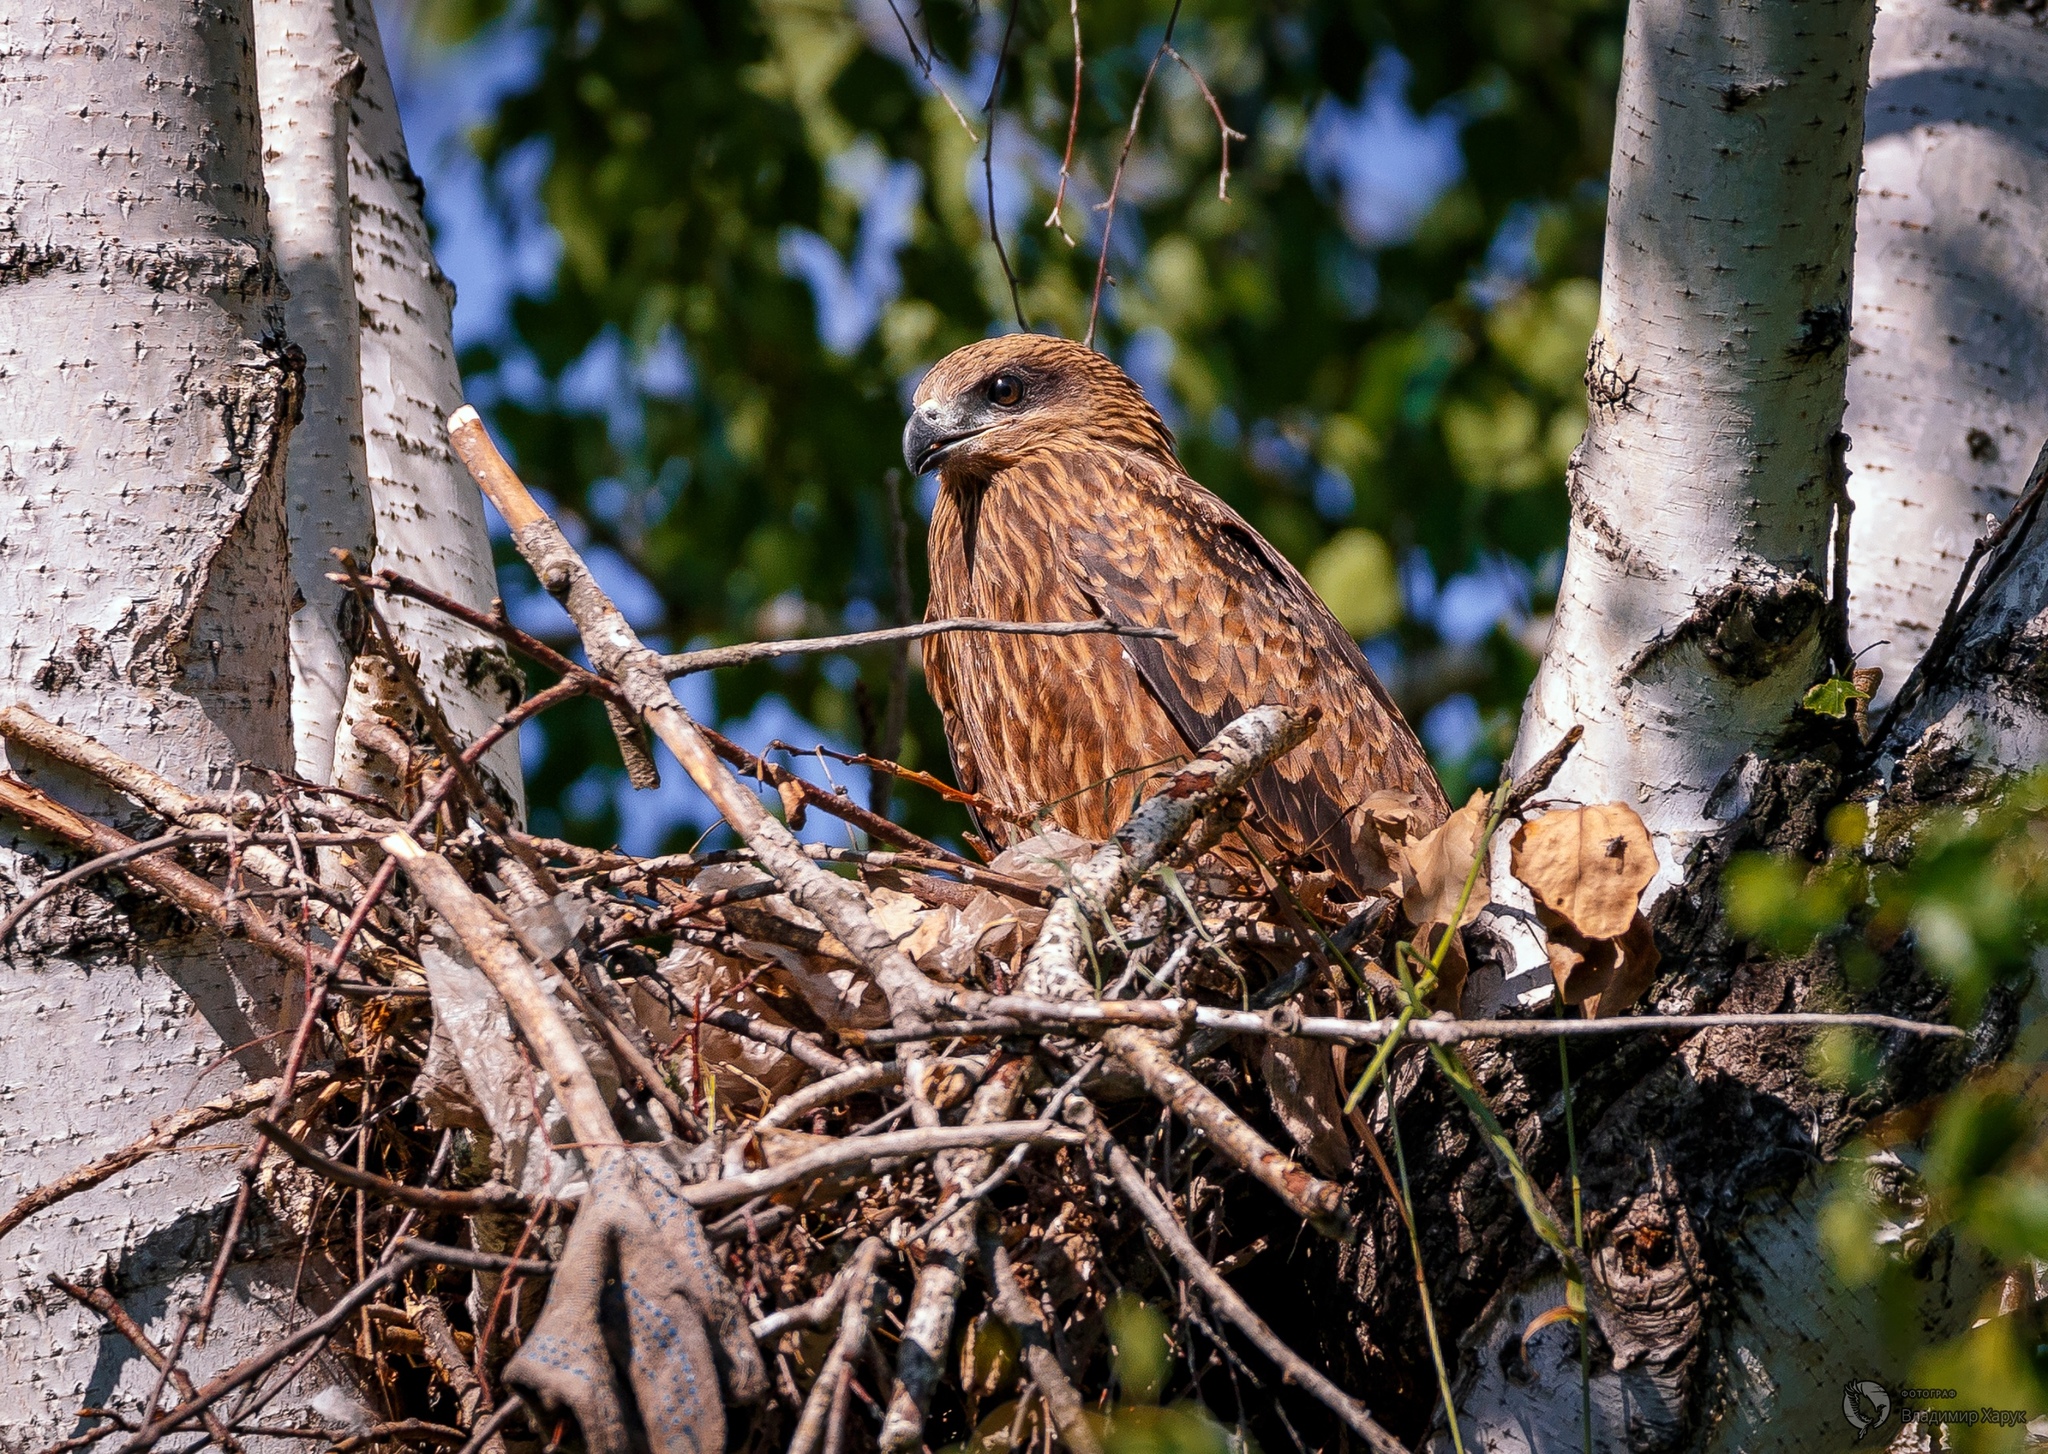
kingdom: Animalia
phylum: Chordata
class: Aves
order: Accipitriformes
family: Accipitridae
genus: Milvus
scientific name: Milvus migrans
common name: Black kite
